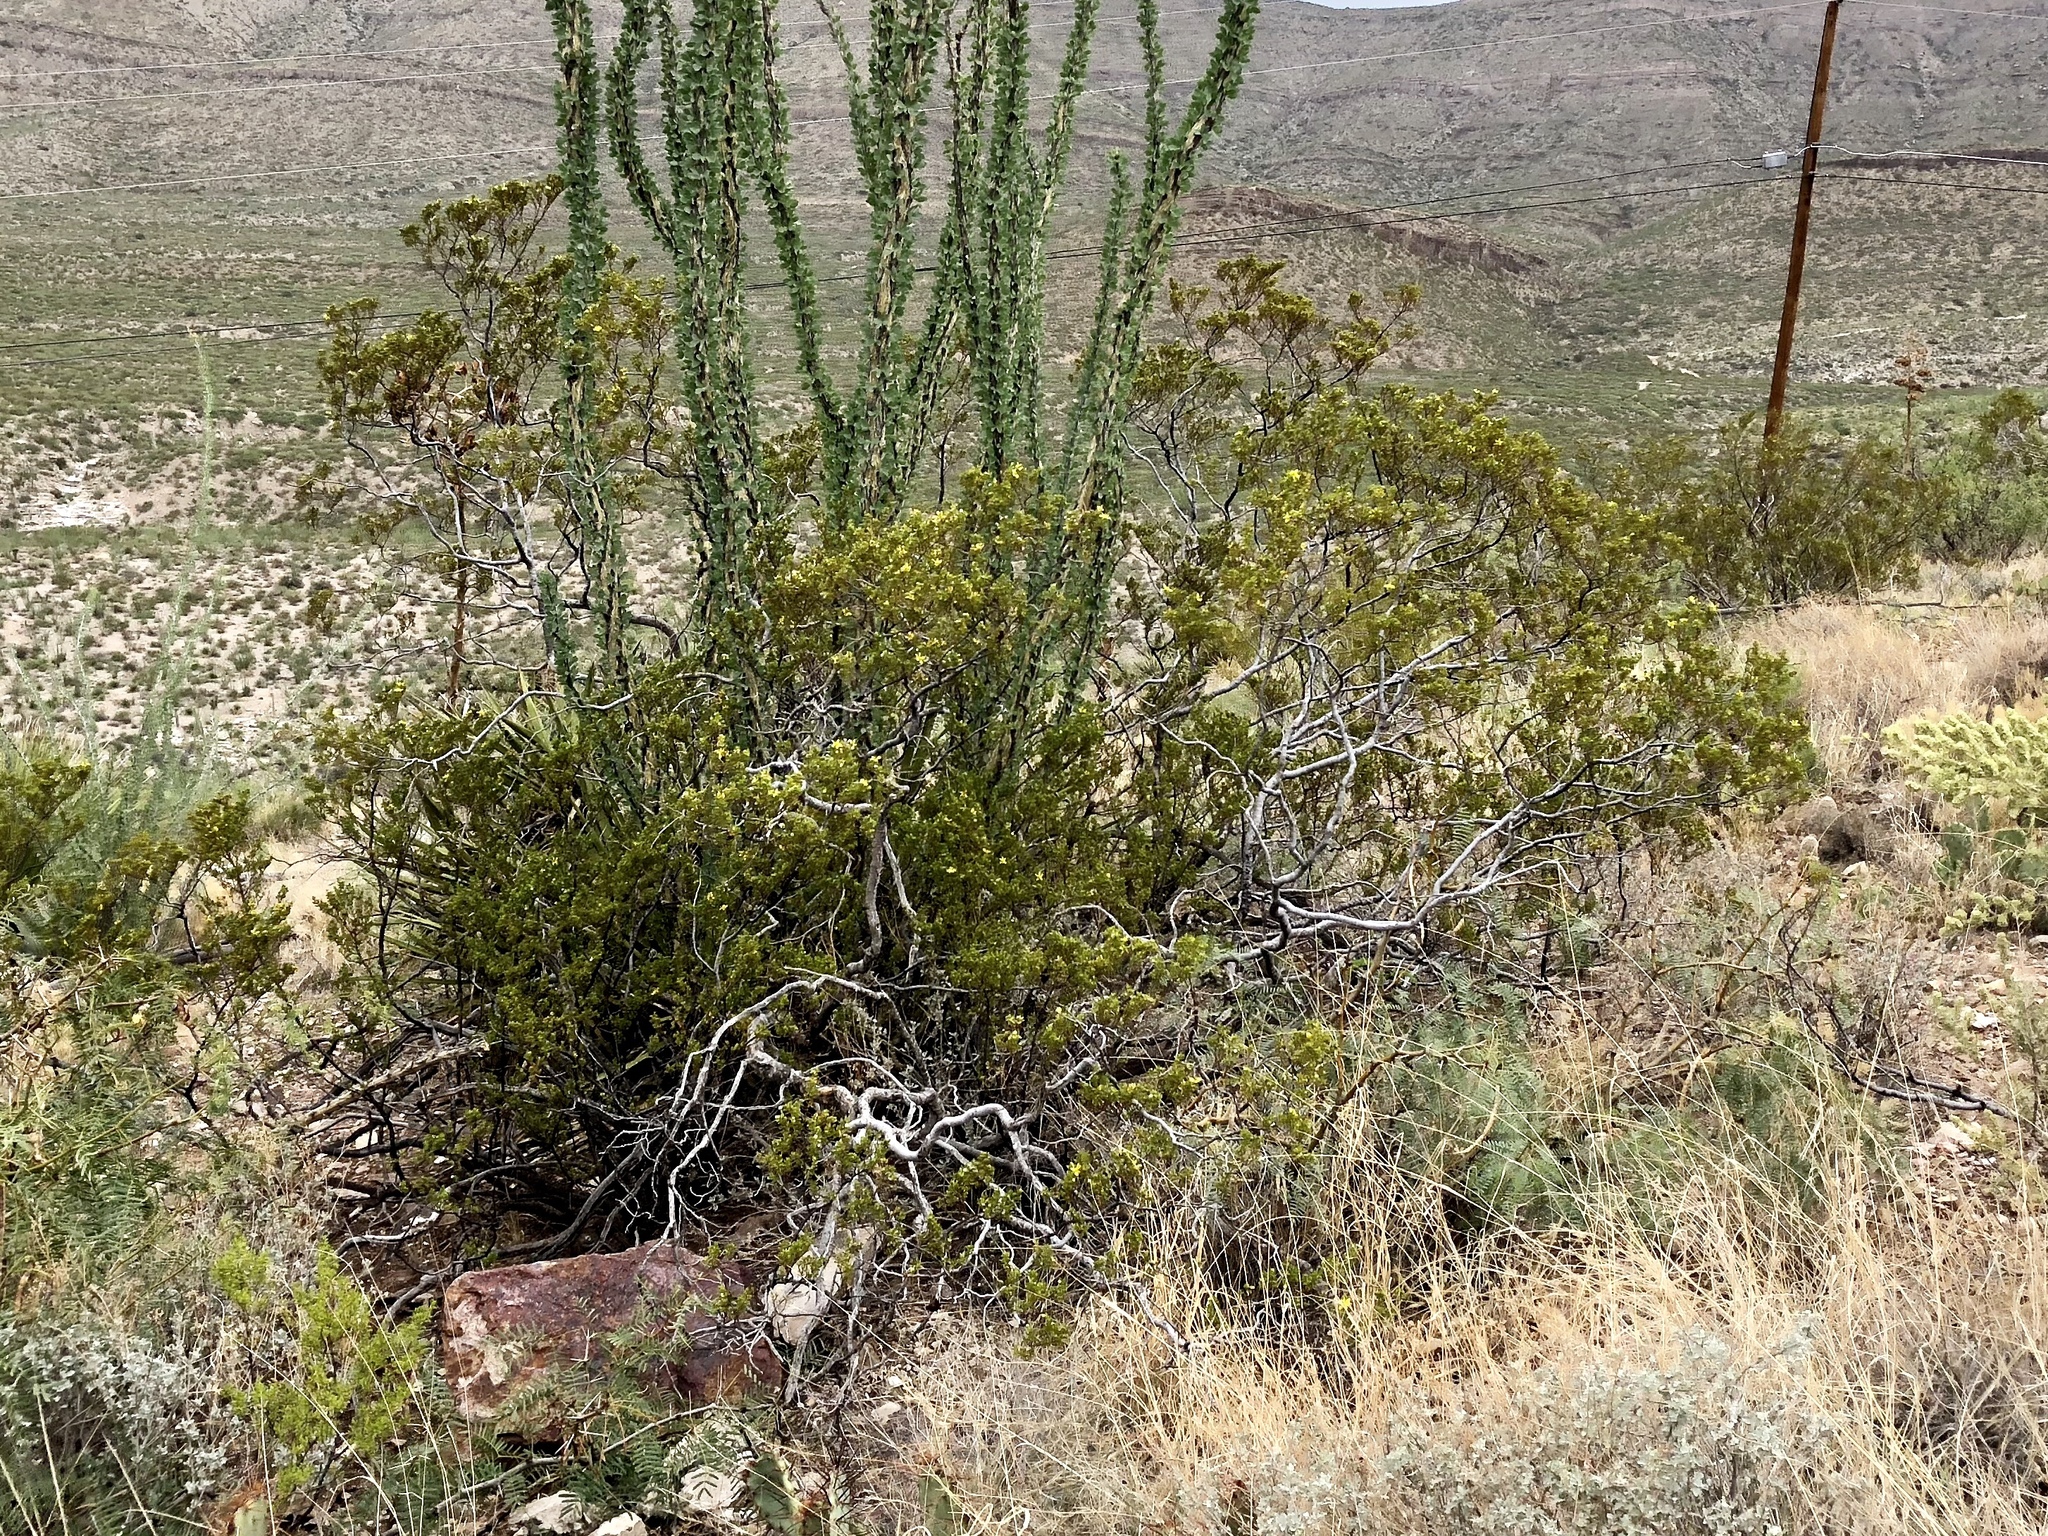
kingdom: Plantae
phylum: Tracheophyta
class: Magnoliopsida
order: Zygophyllales
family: Zygophyllaceae
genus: Larrea
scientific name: Larrea tridentata
